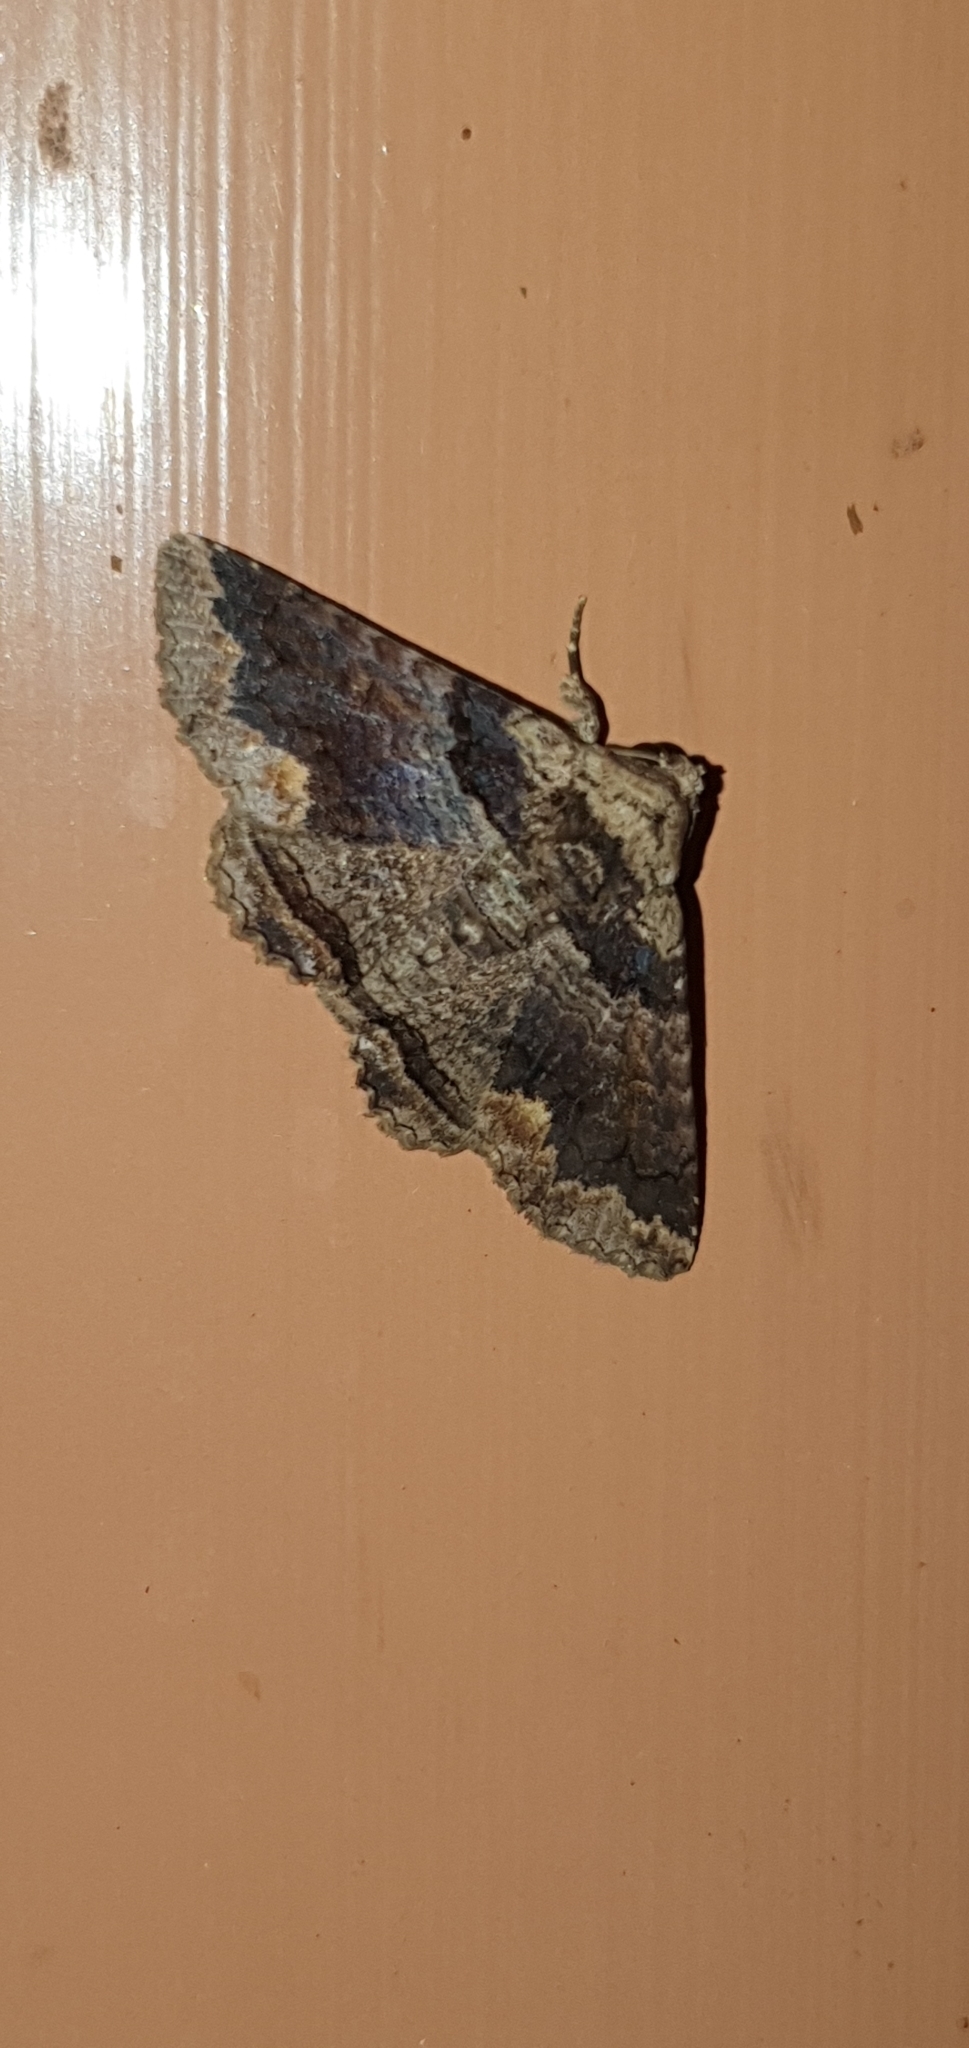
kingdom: Animalia
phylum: Arthropoda
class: Insecta
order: Lepidoptera
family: Erebidae
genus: Pericyma
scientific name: Pericyma cruegeri
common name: Poinciana looper
